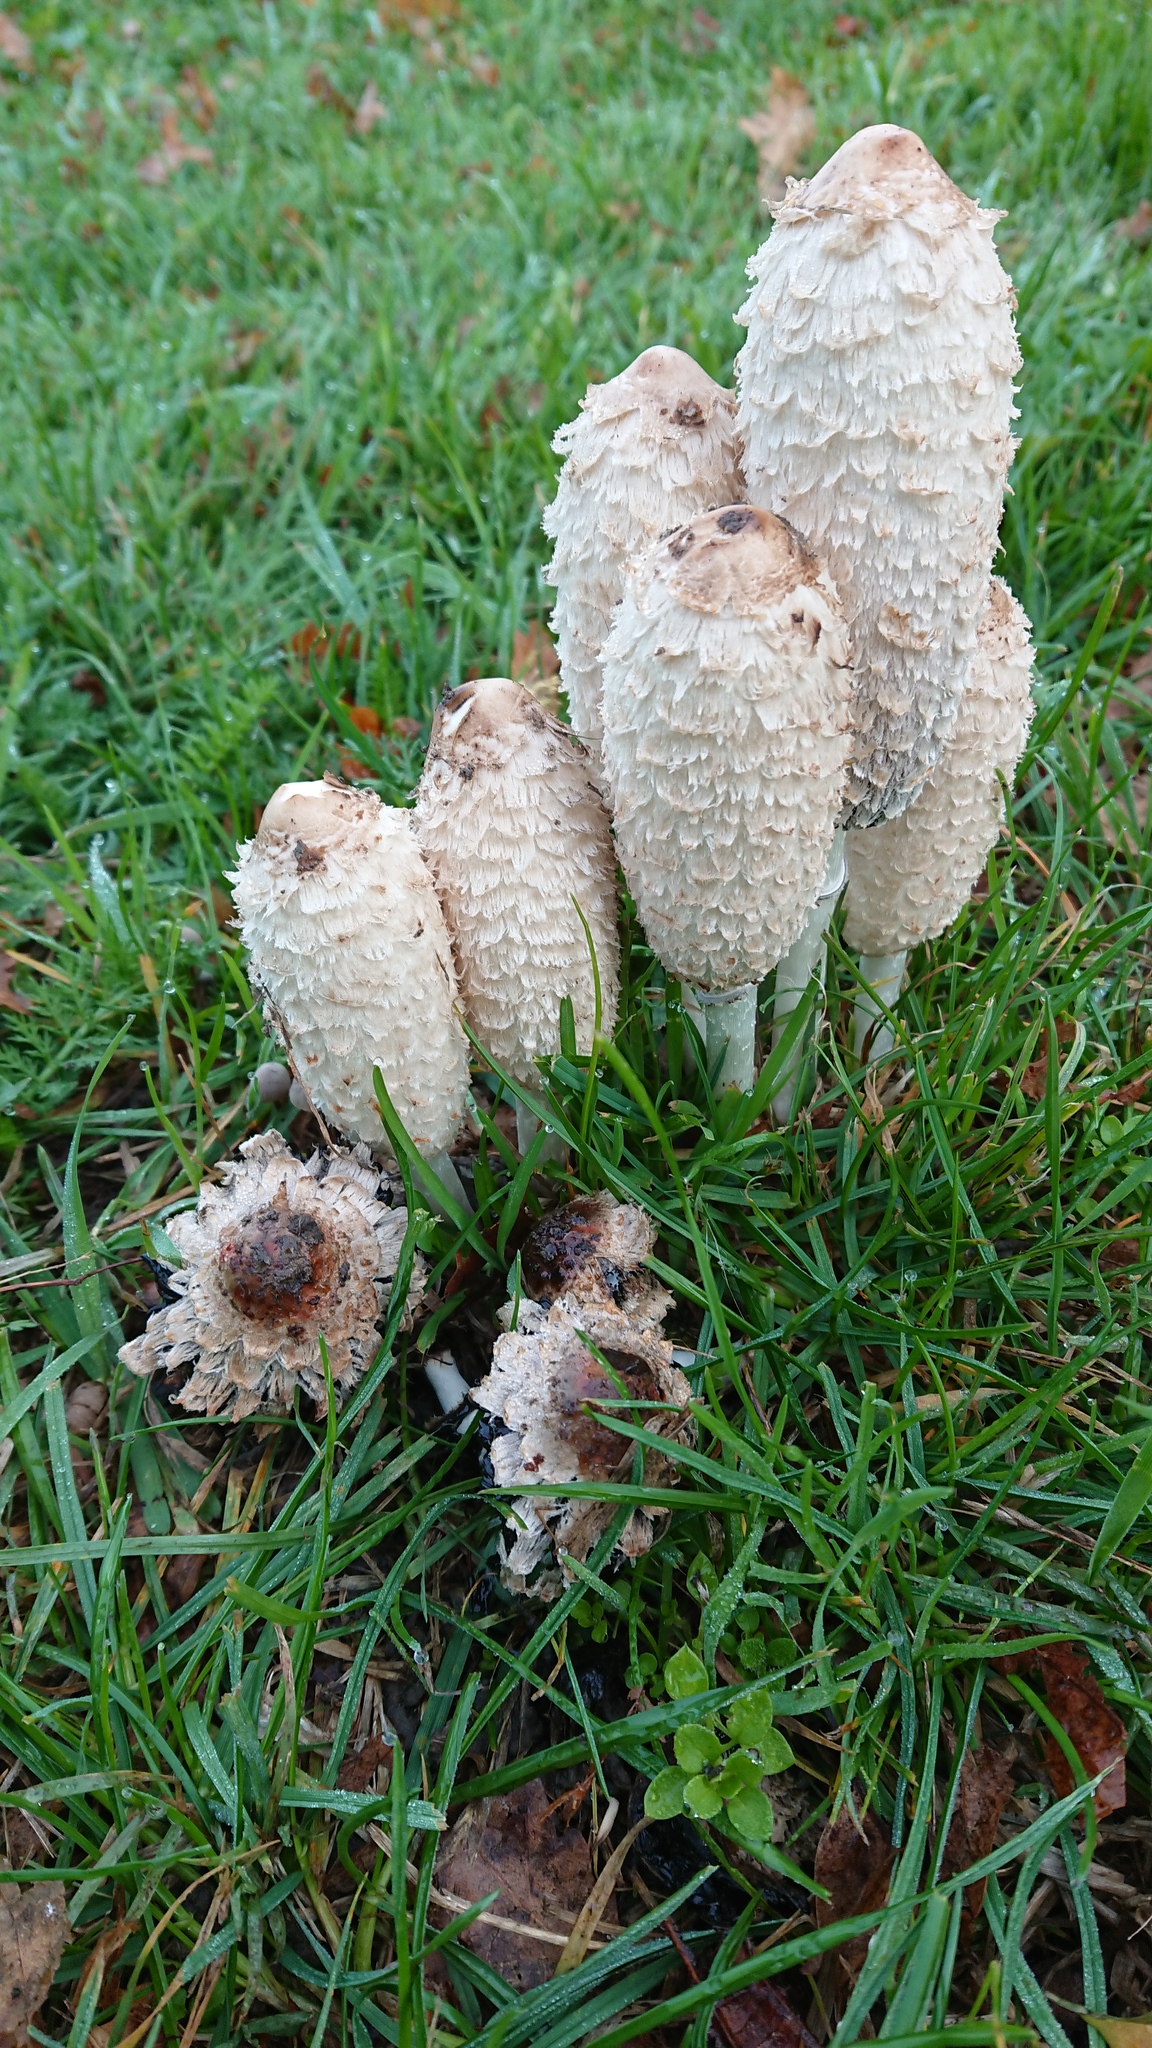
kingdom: Fungi
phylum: Basidiomycota
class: Agaricomycetes
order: Agaricales
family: Agaricaceae
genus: Coprinus
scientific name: Coprinus comatus
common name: Lawyer's wig
